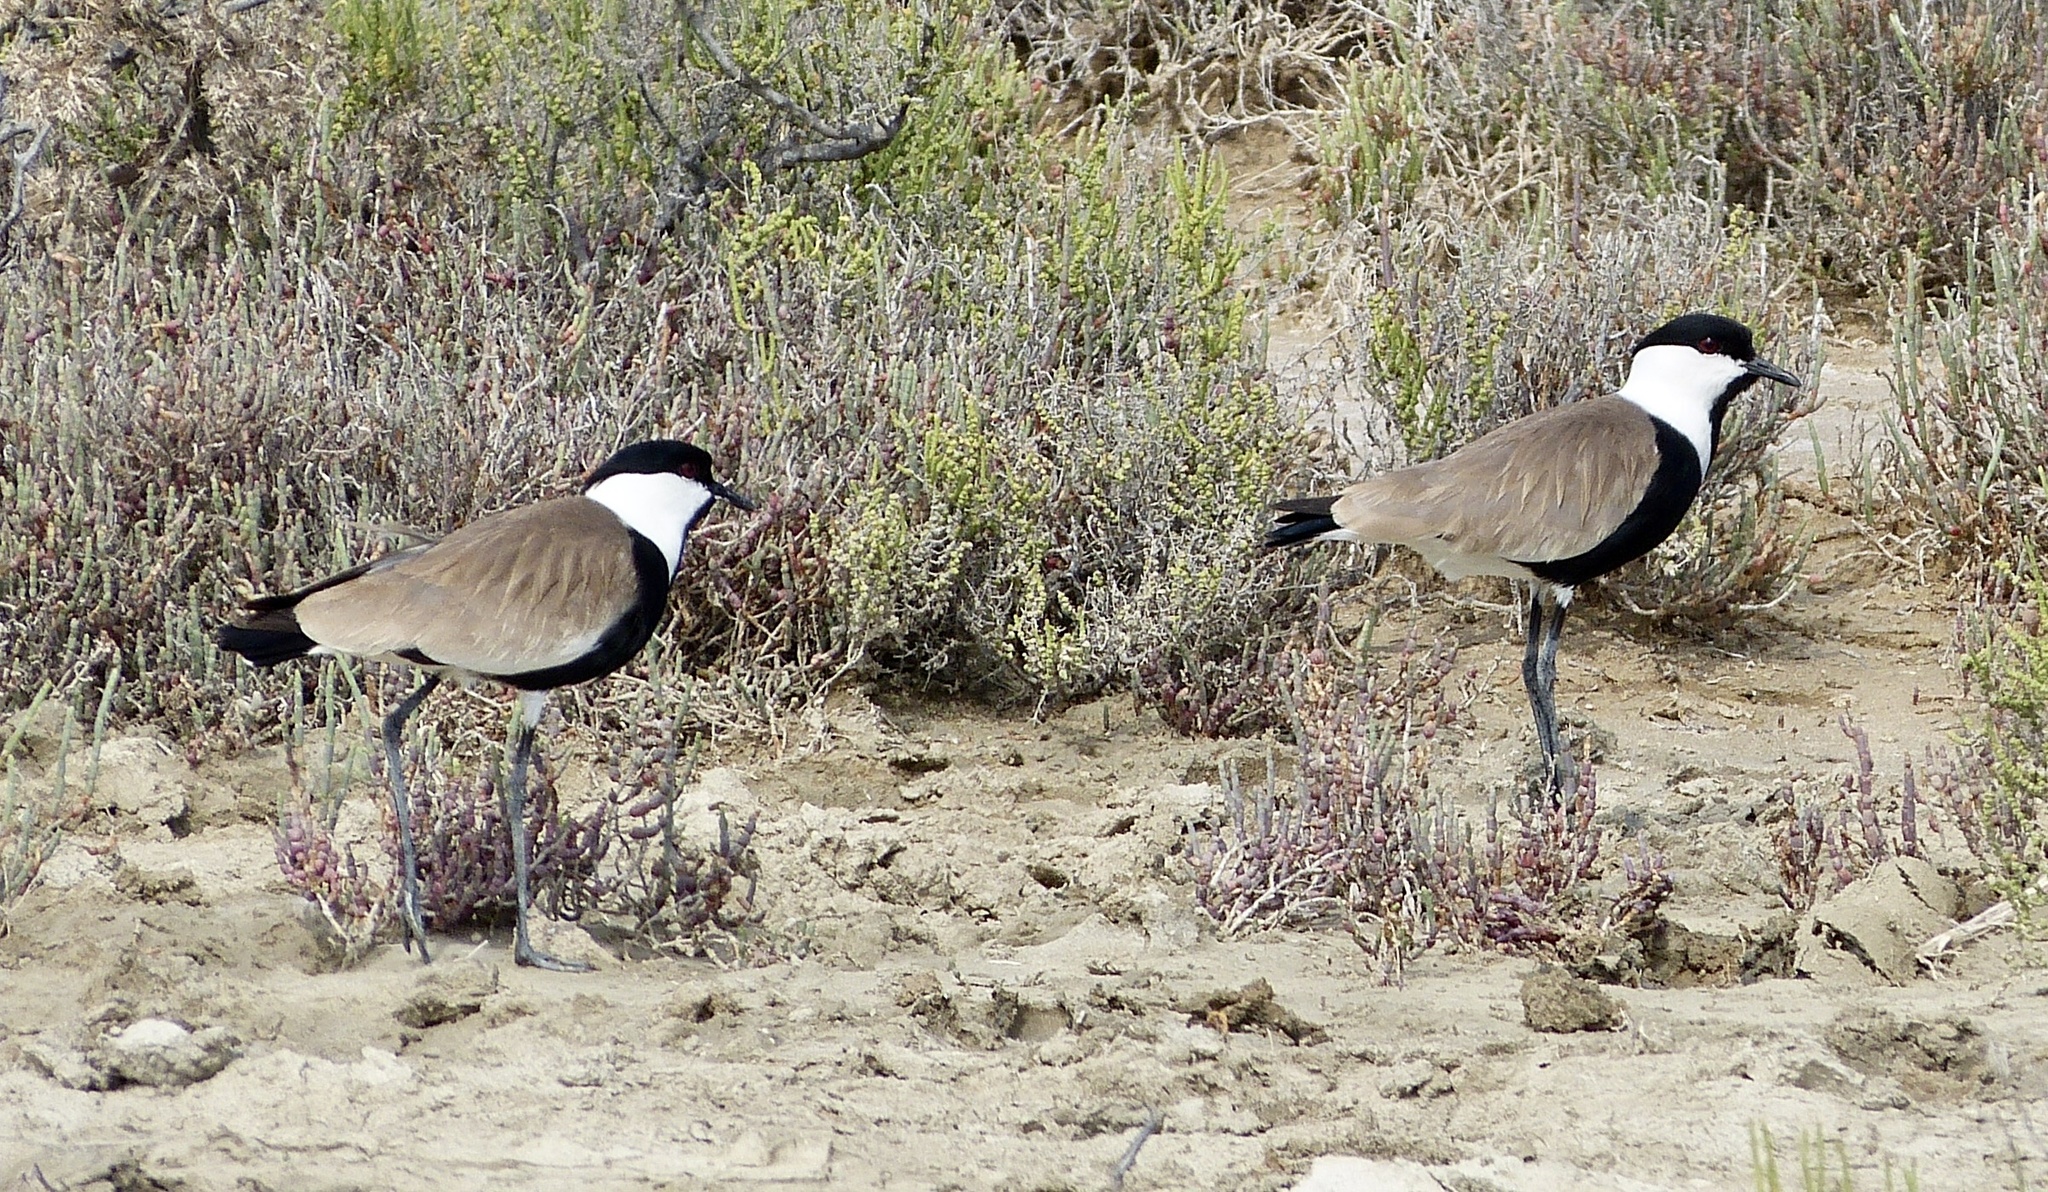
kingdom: Animalia
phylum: Chordata
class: Aves
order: Charadriiformes
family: Charadriidae
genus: Vanellus
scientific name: Vanellus spinosus
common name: Spur-winged lapwing
